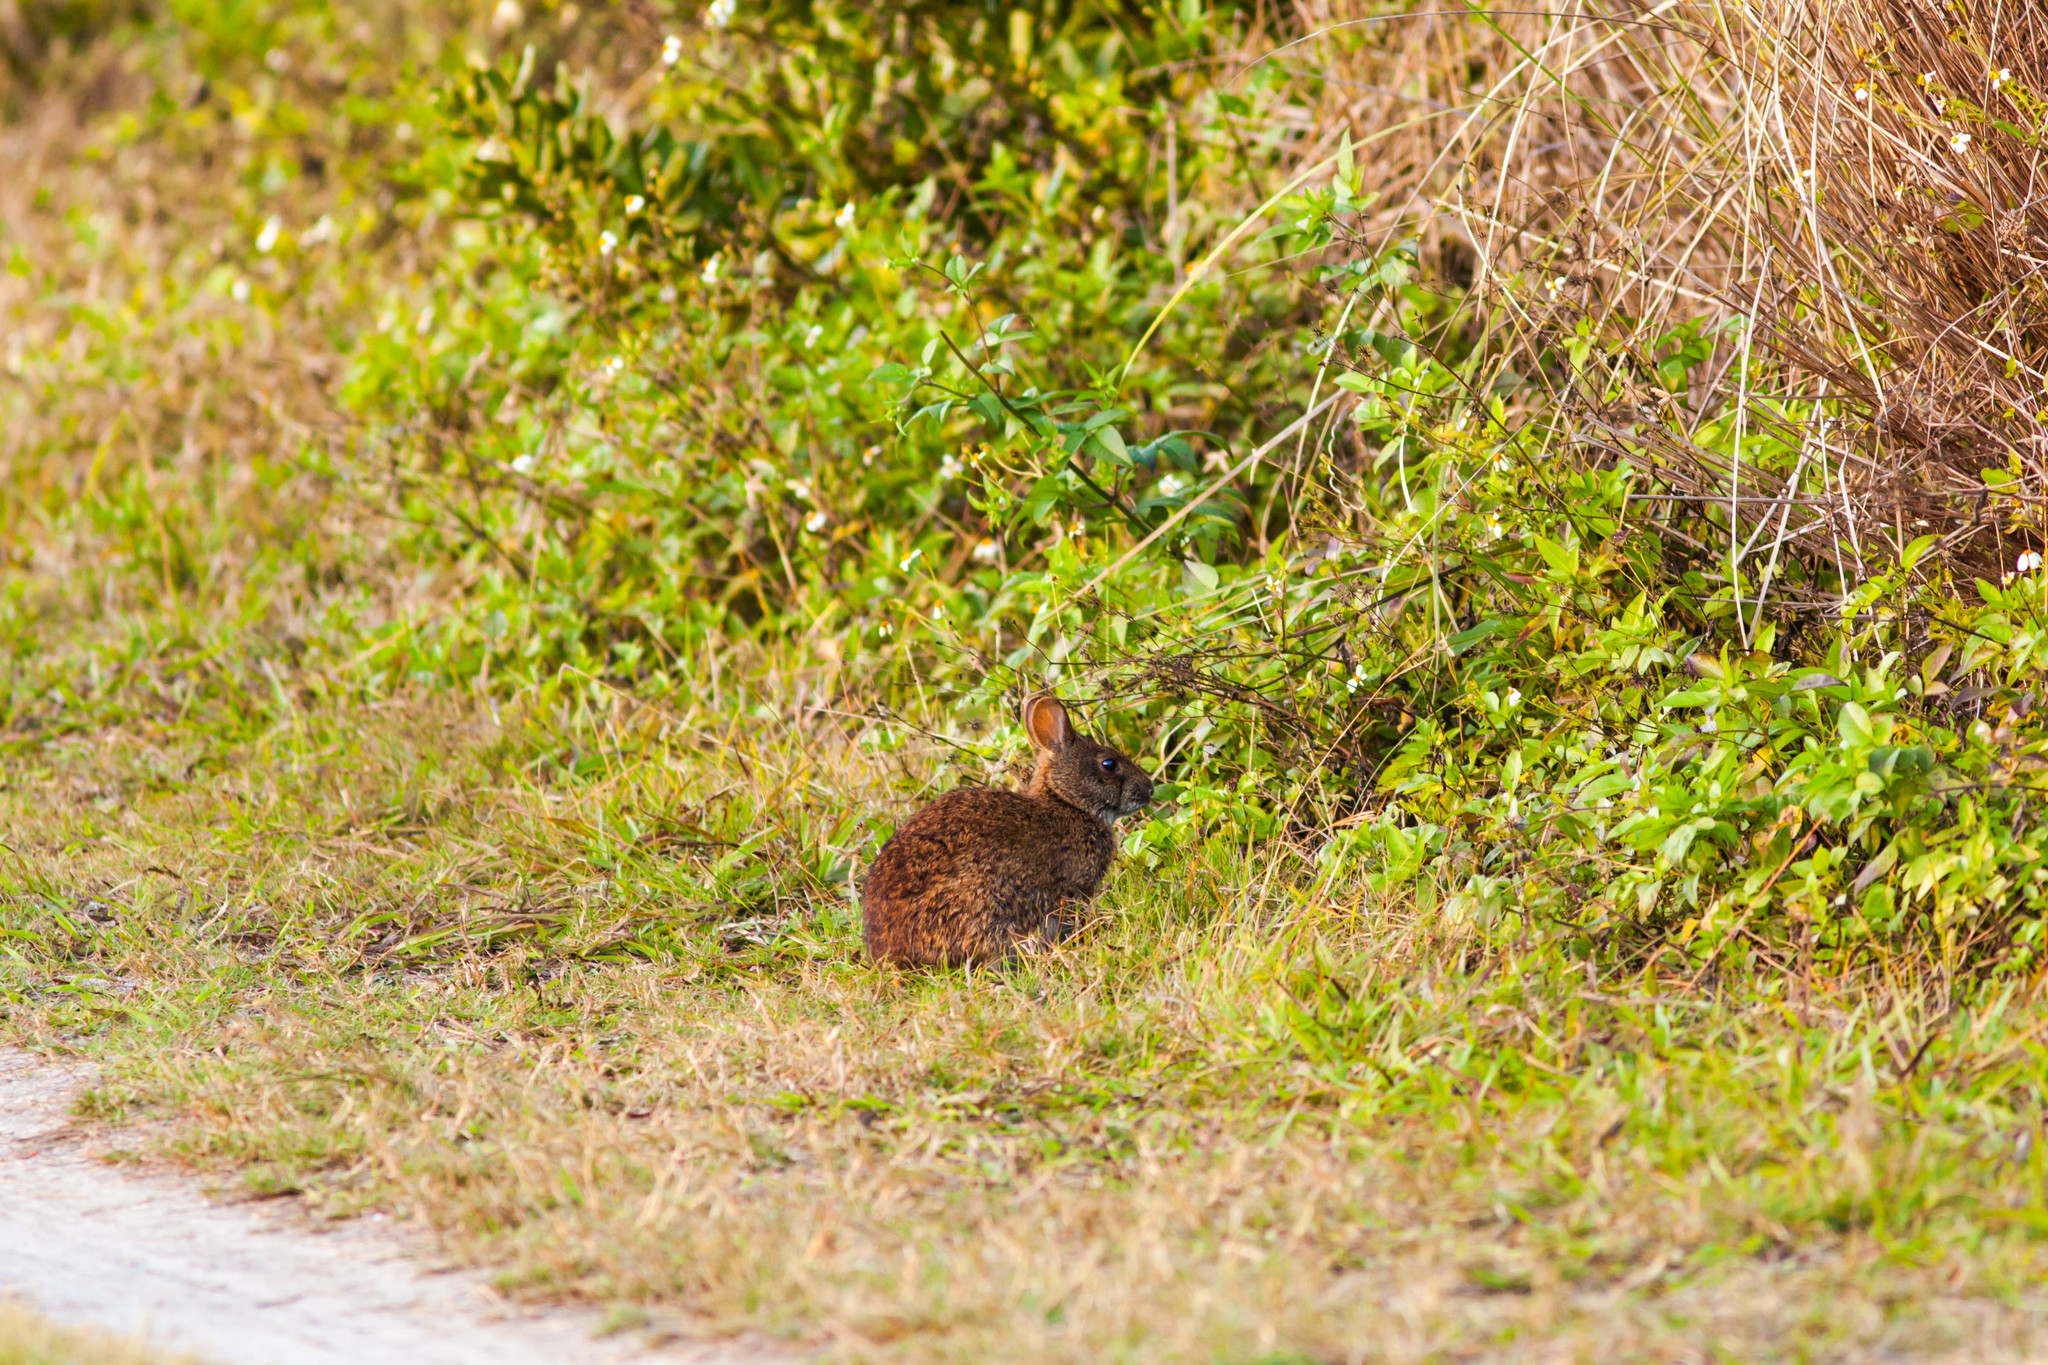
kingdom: Animalia
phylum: Chordata
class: Mammalia
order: Lagomorpha
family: Leporidae
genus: Sylvilagus
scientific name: Sylvilagus palustris
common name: Marsh rabbit
